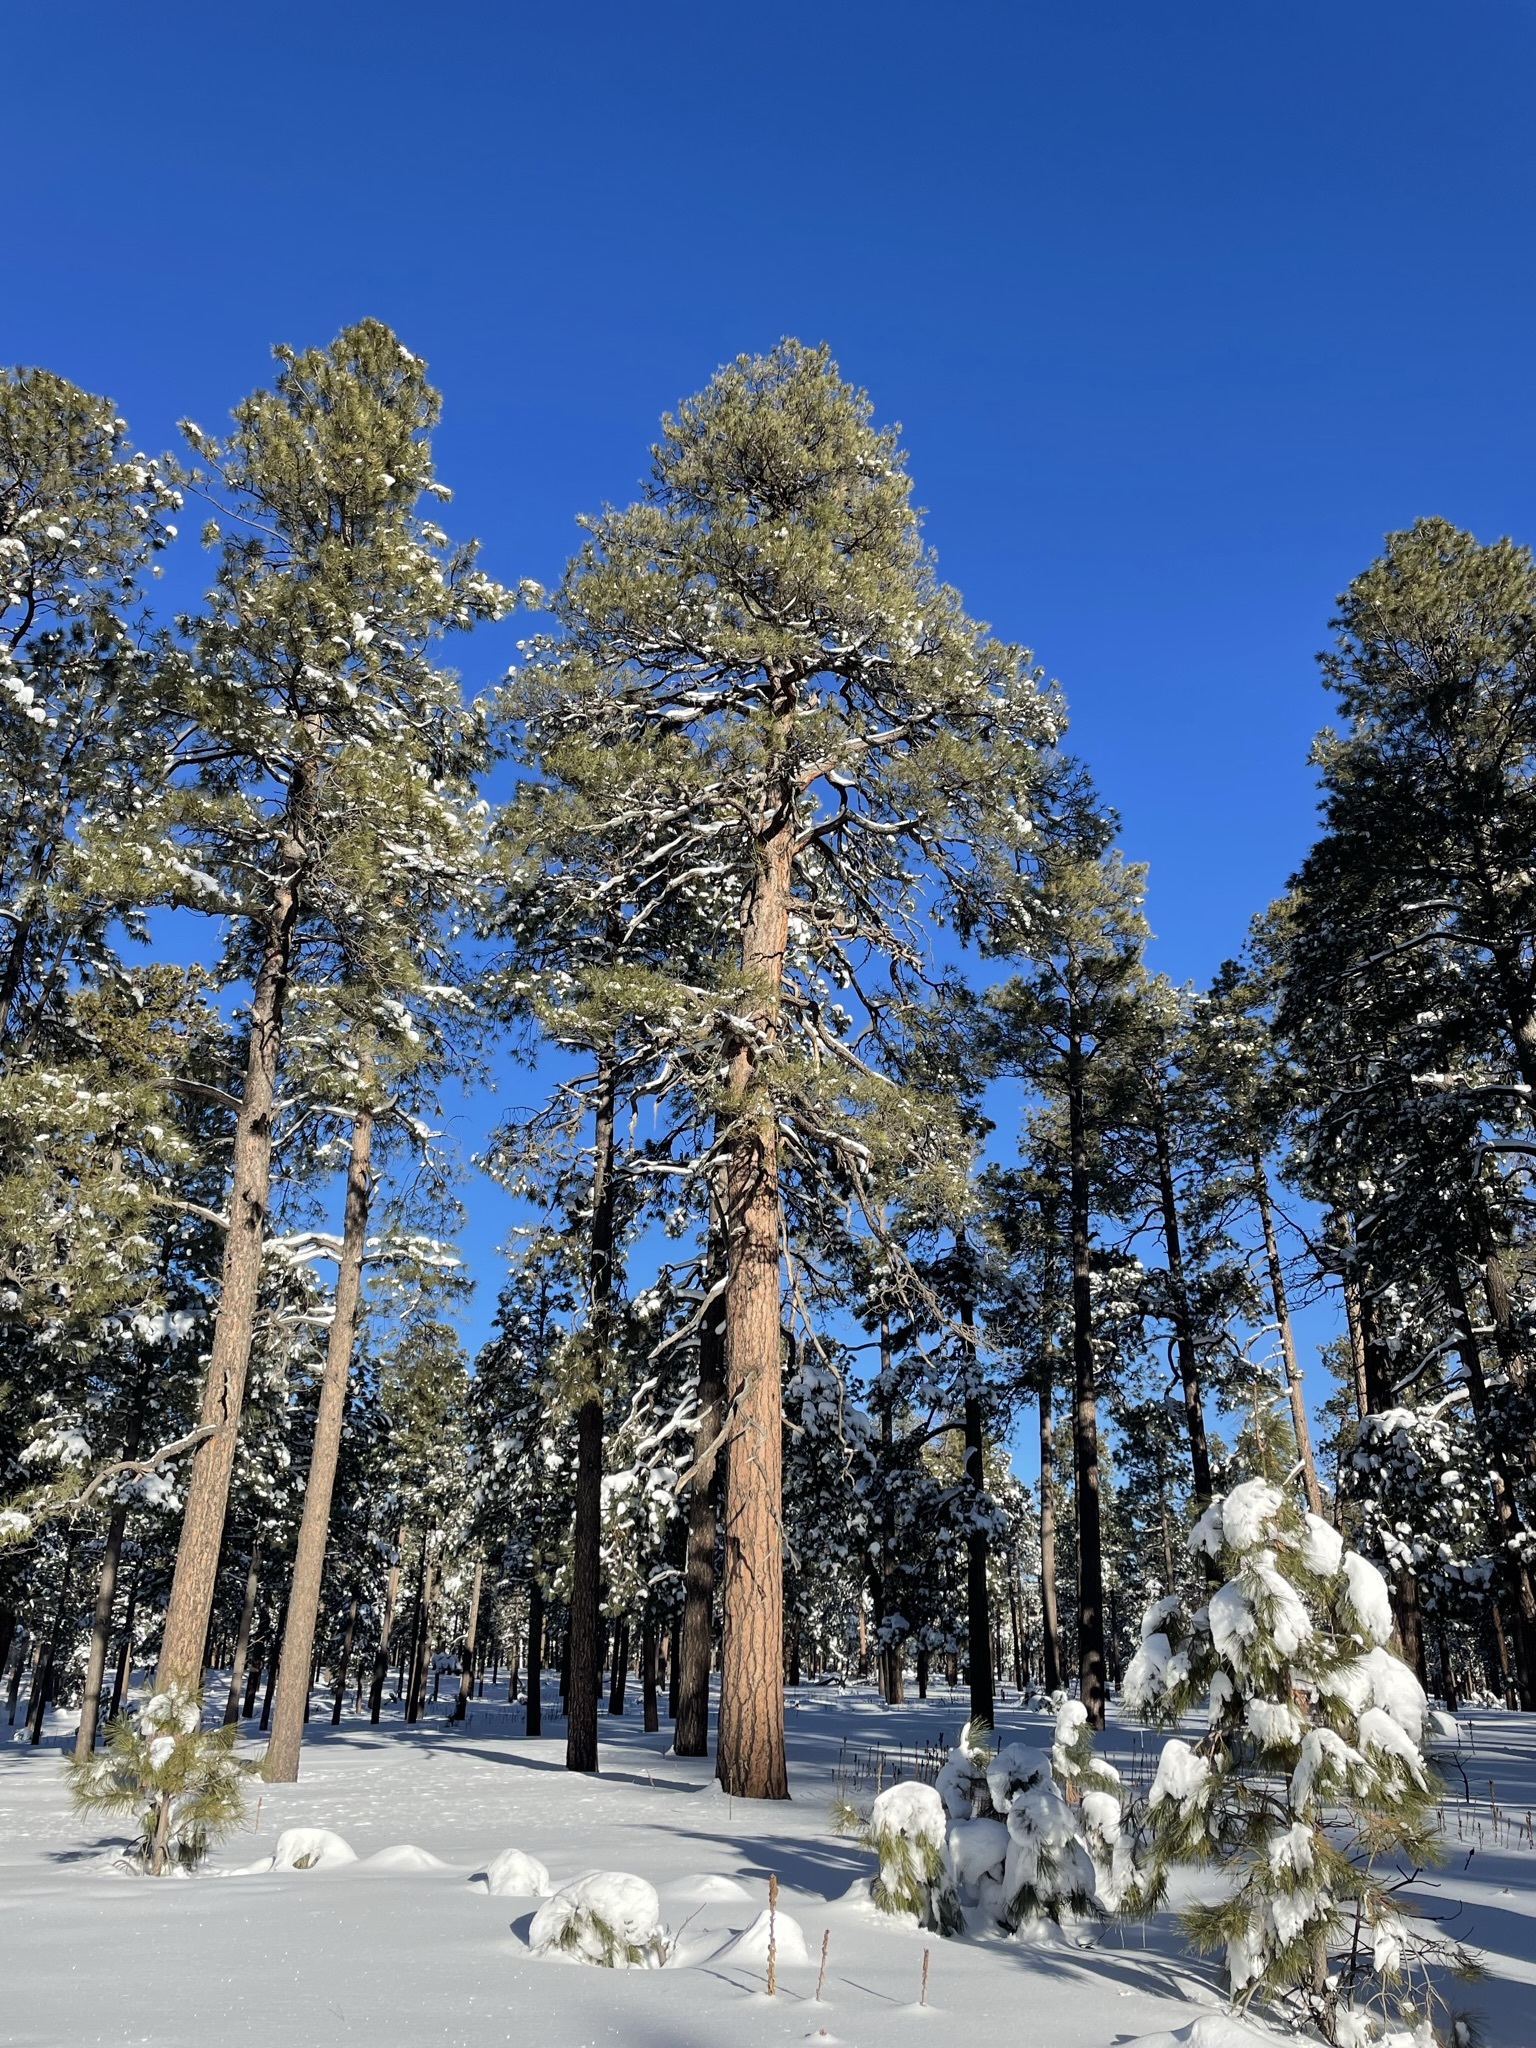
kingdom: Plantae
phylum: Tracheophyta
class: Pinopsida
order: Pinales
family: Pinaceae
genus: Pinus
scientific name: Pinus ponderosa
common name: Western yellow-pine
